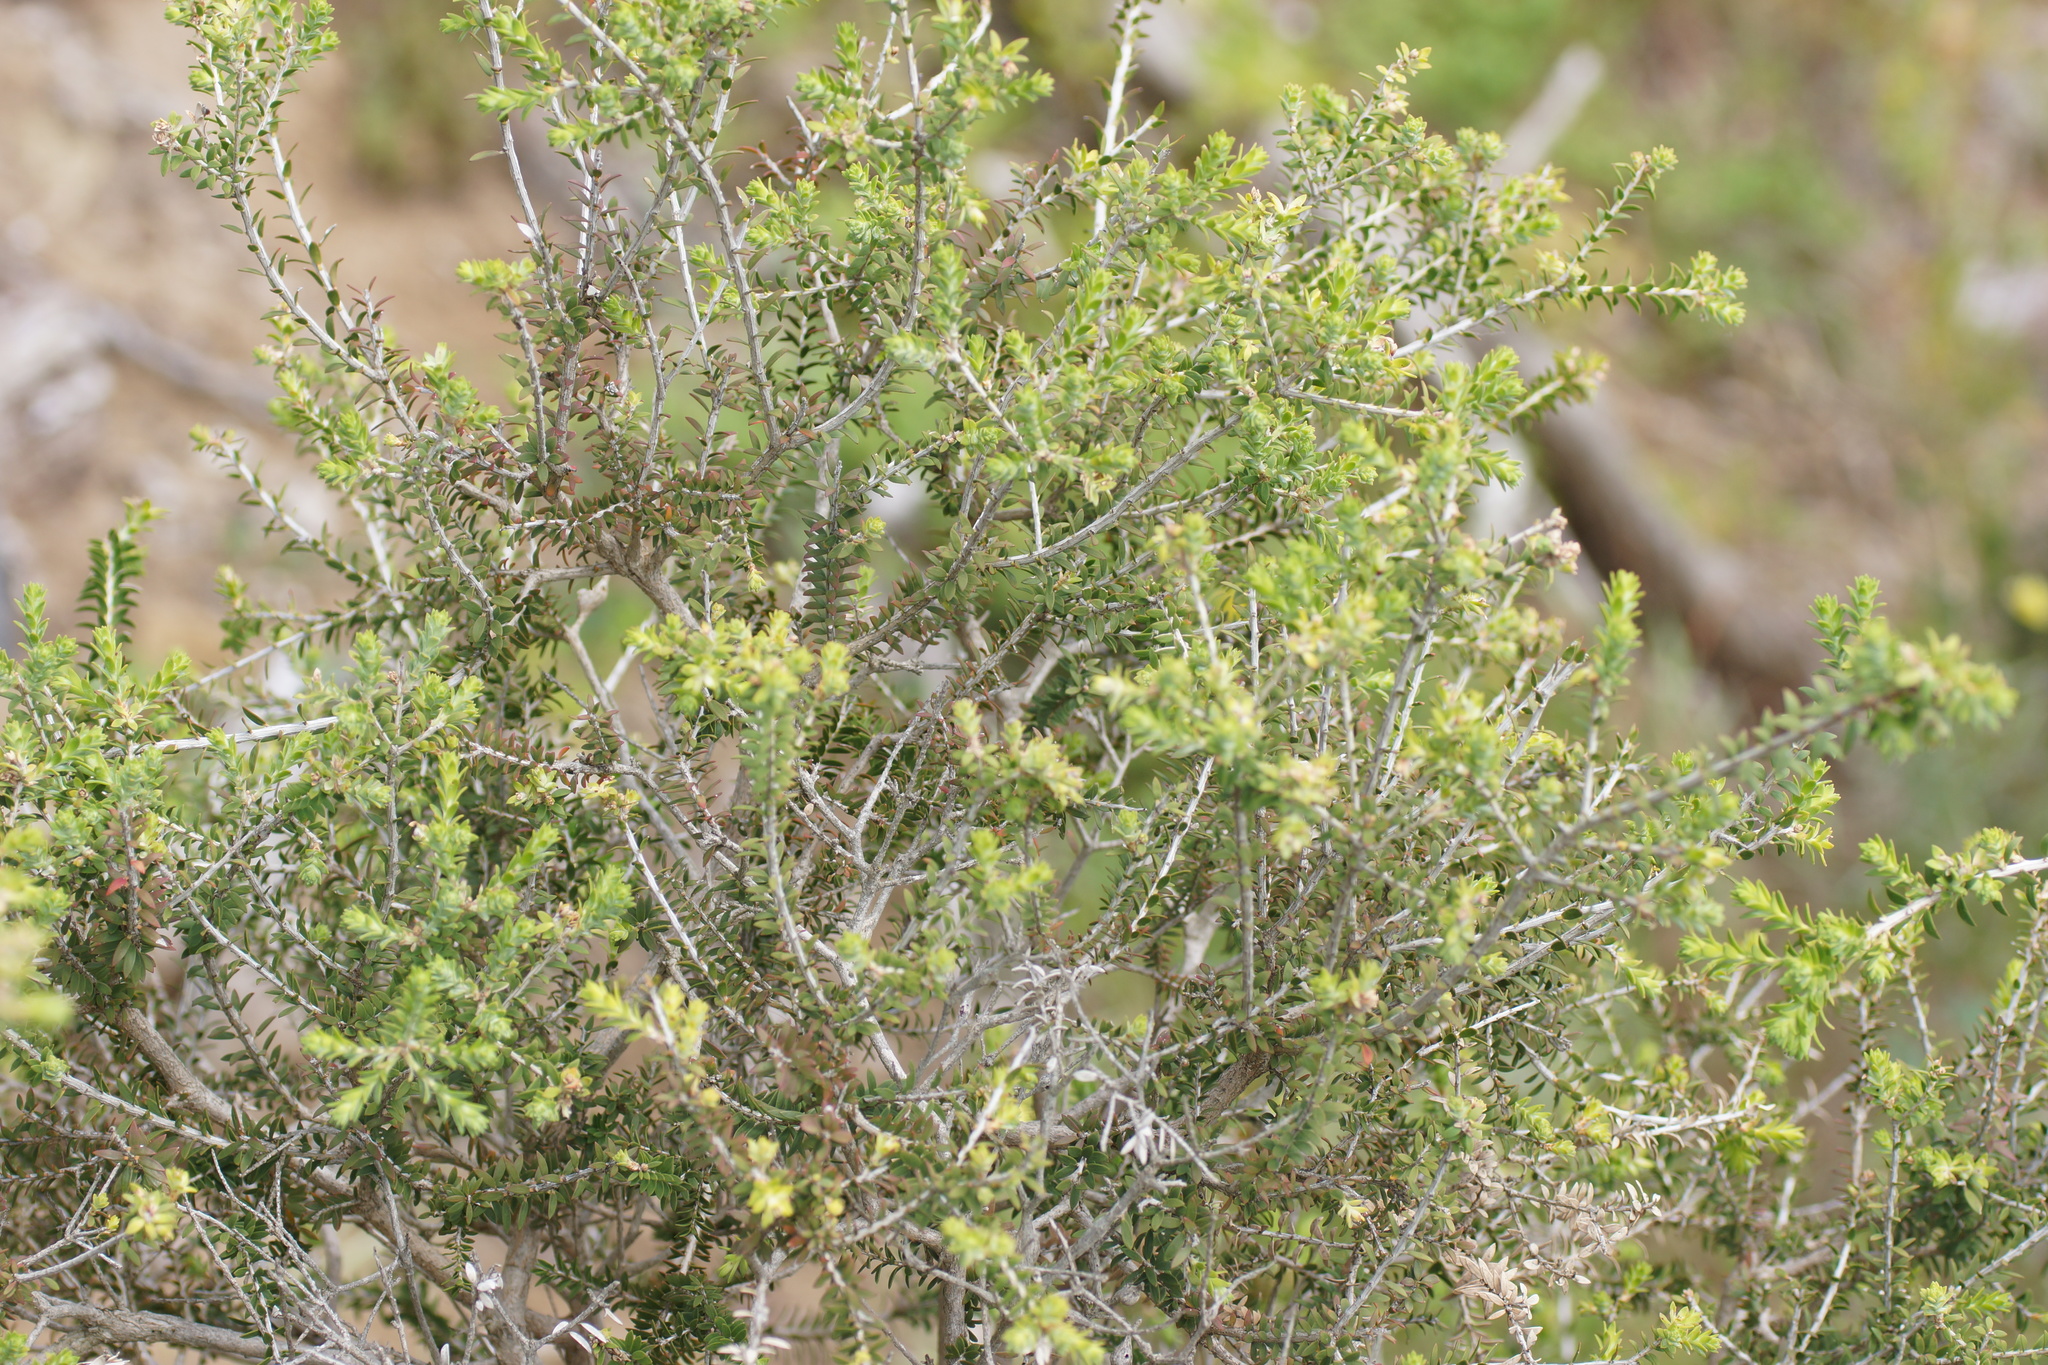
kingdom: Plantae
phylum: Tracheophyta
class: Magnoliopsida
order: Myrtales
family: Myrtaceae
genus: Melaleuca
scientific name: Melaleuca lanceolata
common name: Rottnest island teatree
